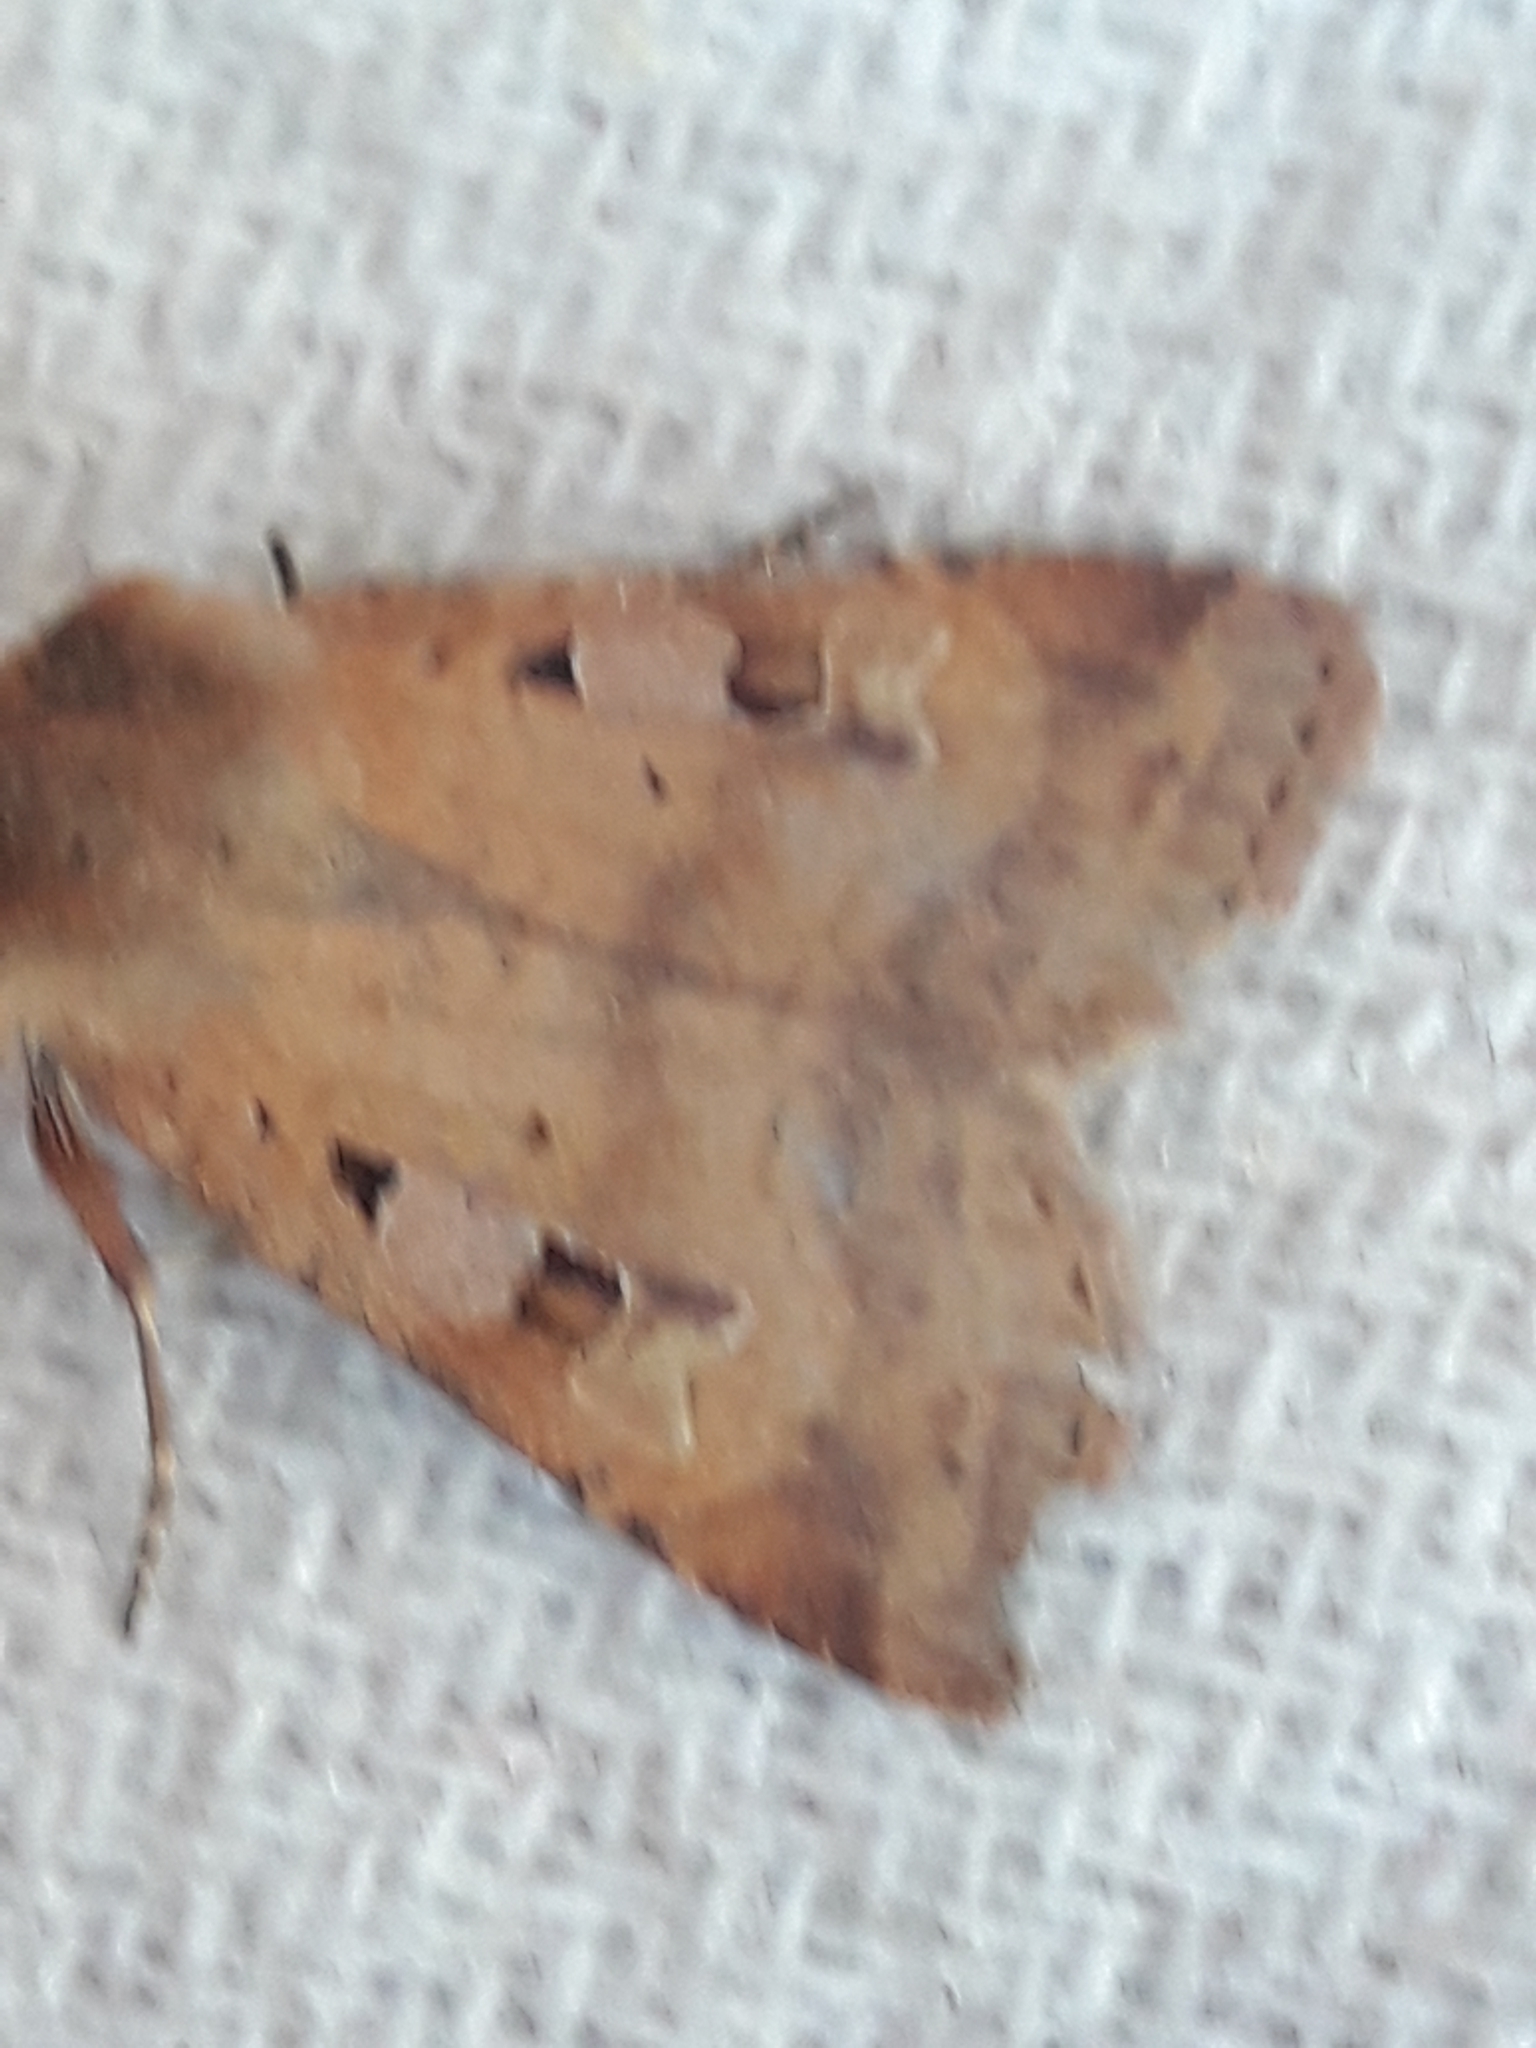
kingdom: Animalia
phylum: Arthropoda
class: Insecta
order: Lepidoptera
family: Noctuidae
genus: Diarsia
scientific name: Diarsia mendica
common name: Ingrailed clay
